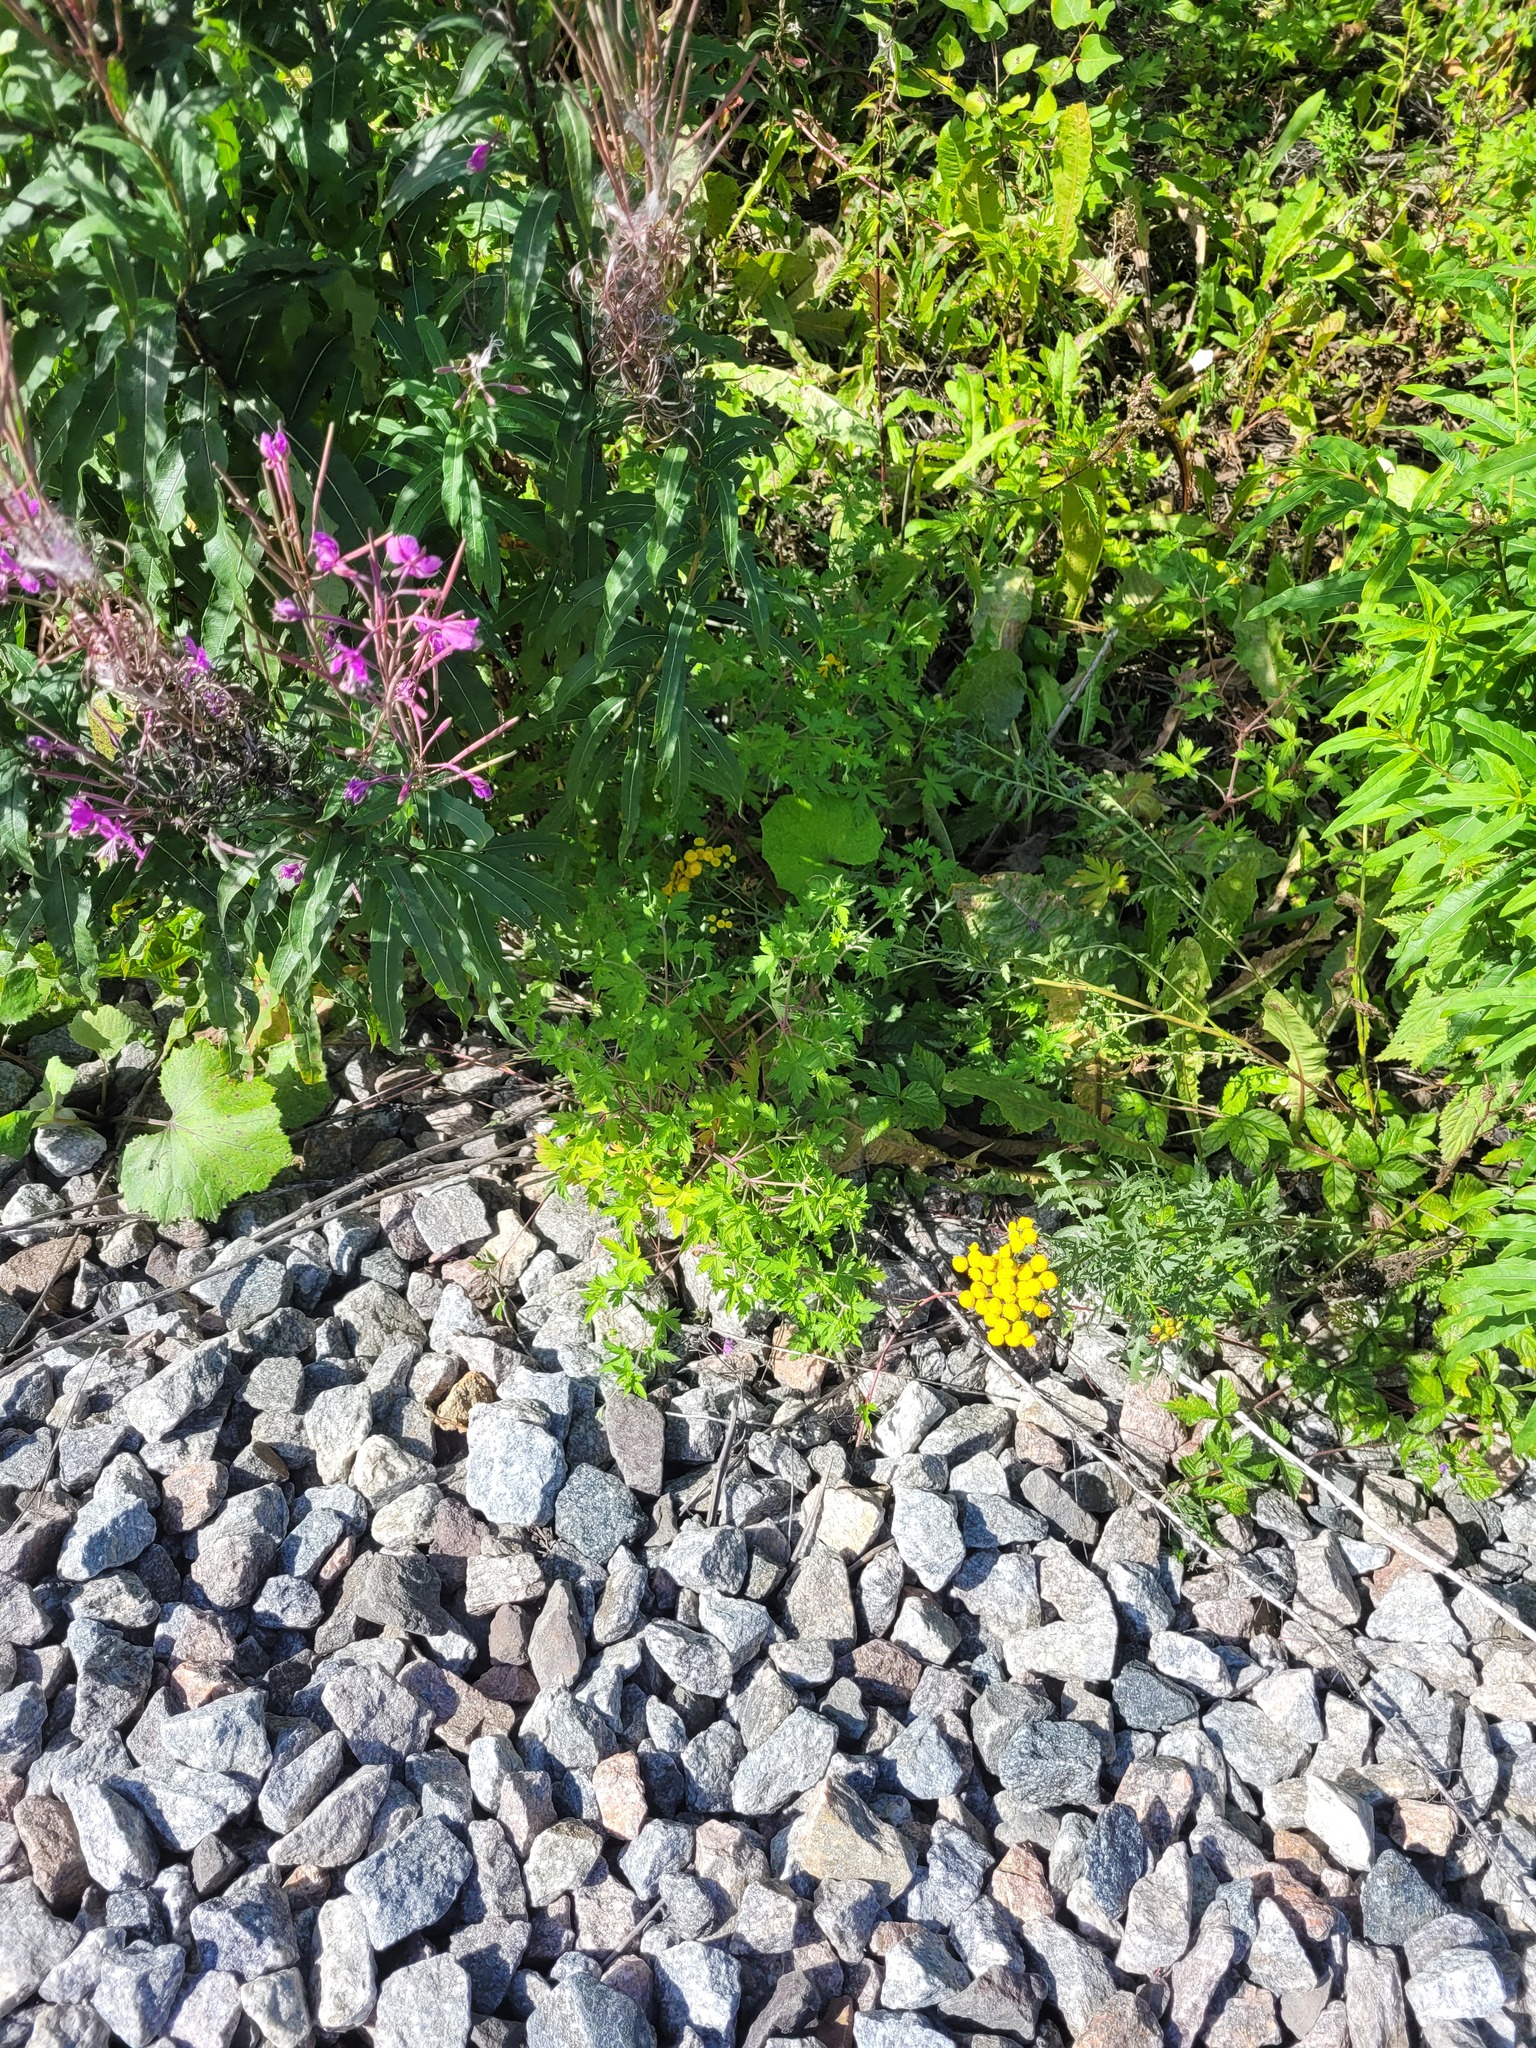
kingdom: Plantae
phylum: Tracheophyta
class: Magnoliopsida
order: Geraniales
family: Geraniaceae
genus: Geranium
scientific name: Geranium sibiricum
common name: Siberian crane's-bill
